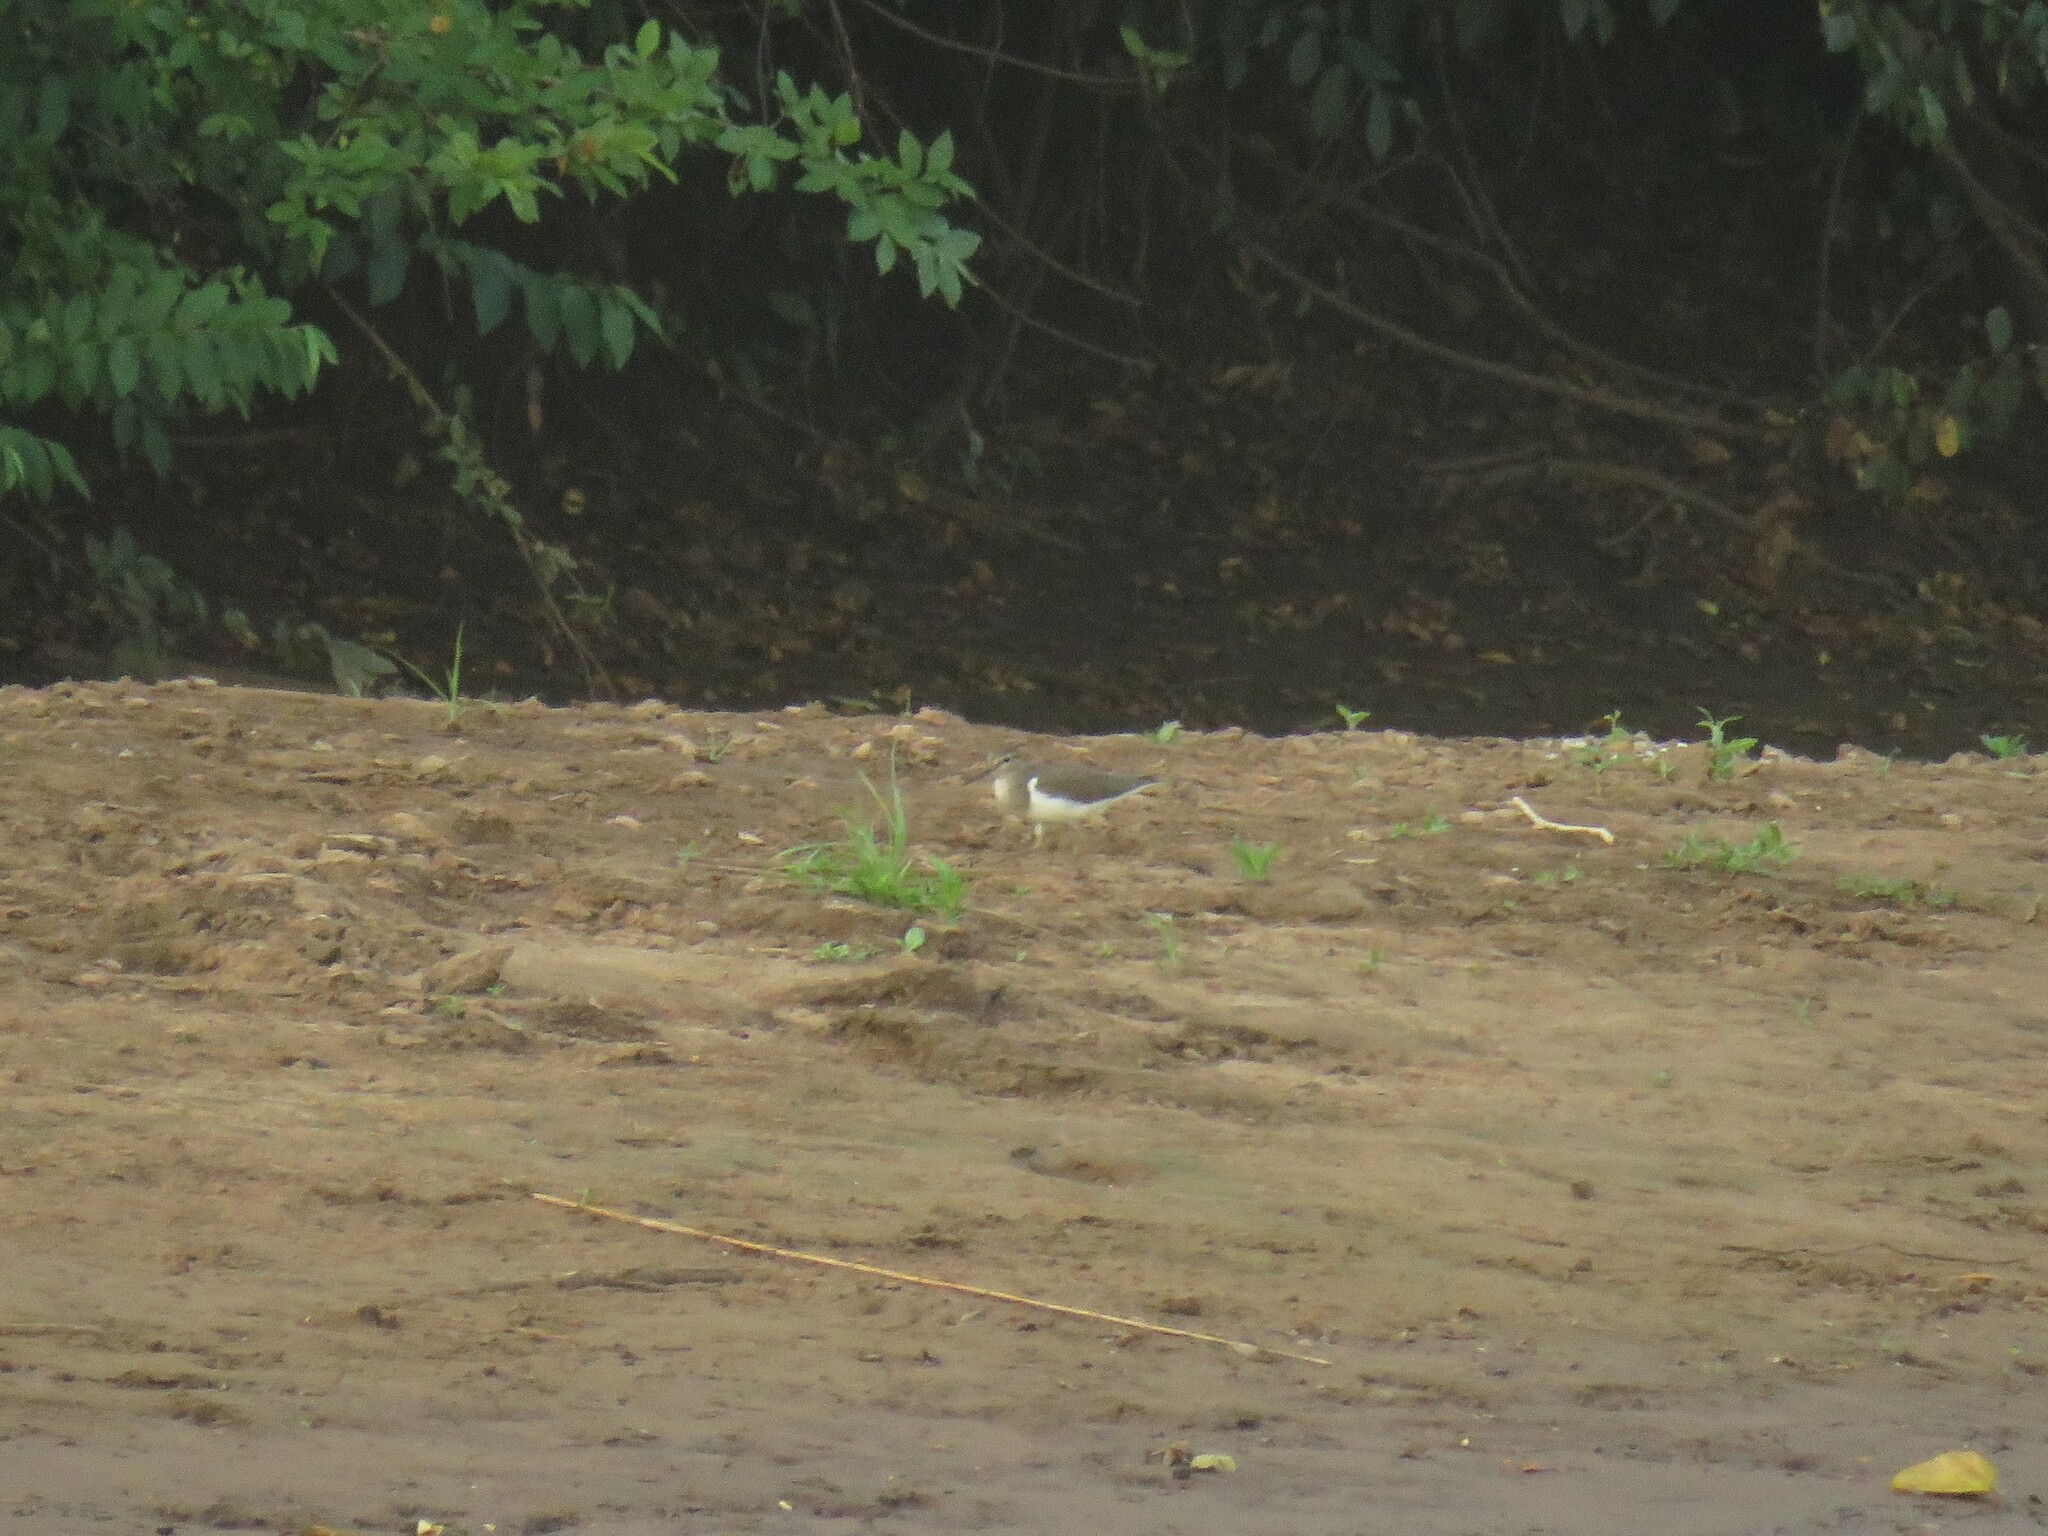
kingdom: Animalia
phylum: Chordata
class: Aves
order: Charadriiformes
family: Scolopacidae
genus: Actitis
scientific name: Actitis hypoleucos
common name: Common sandpiper
